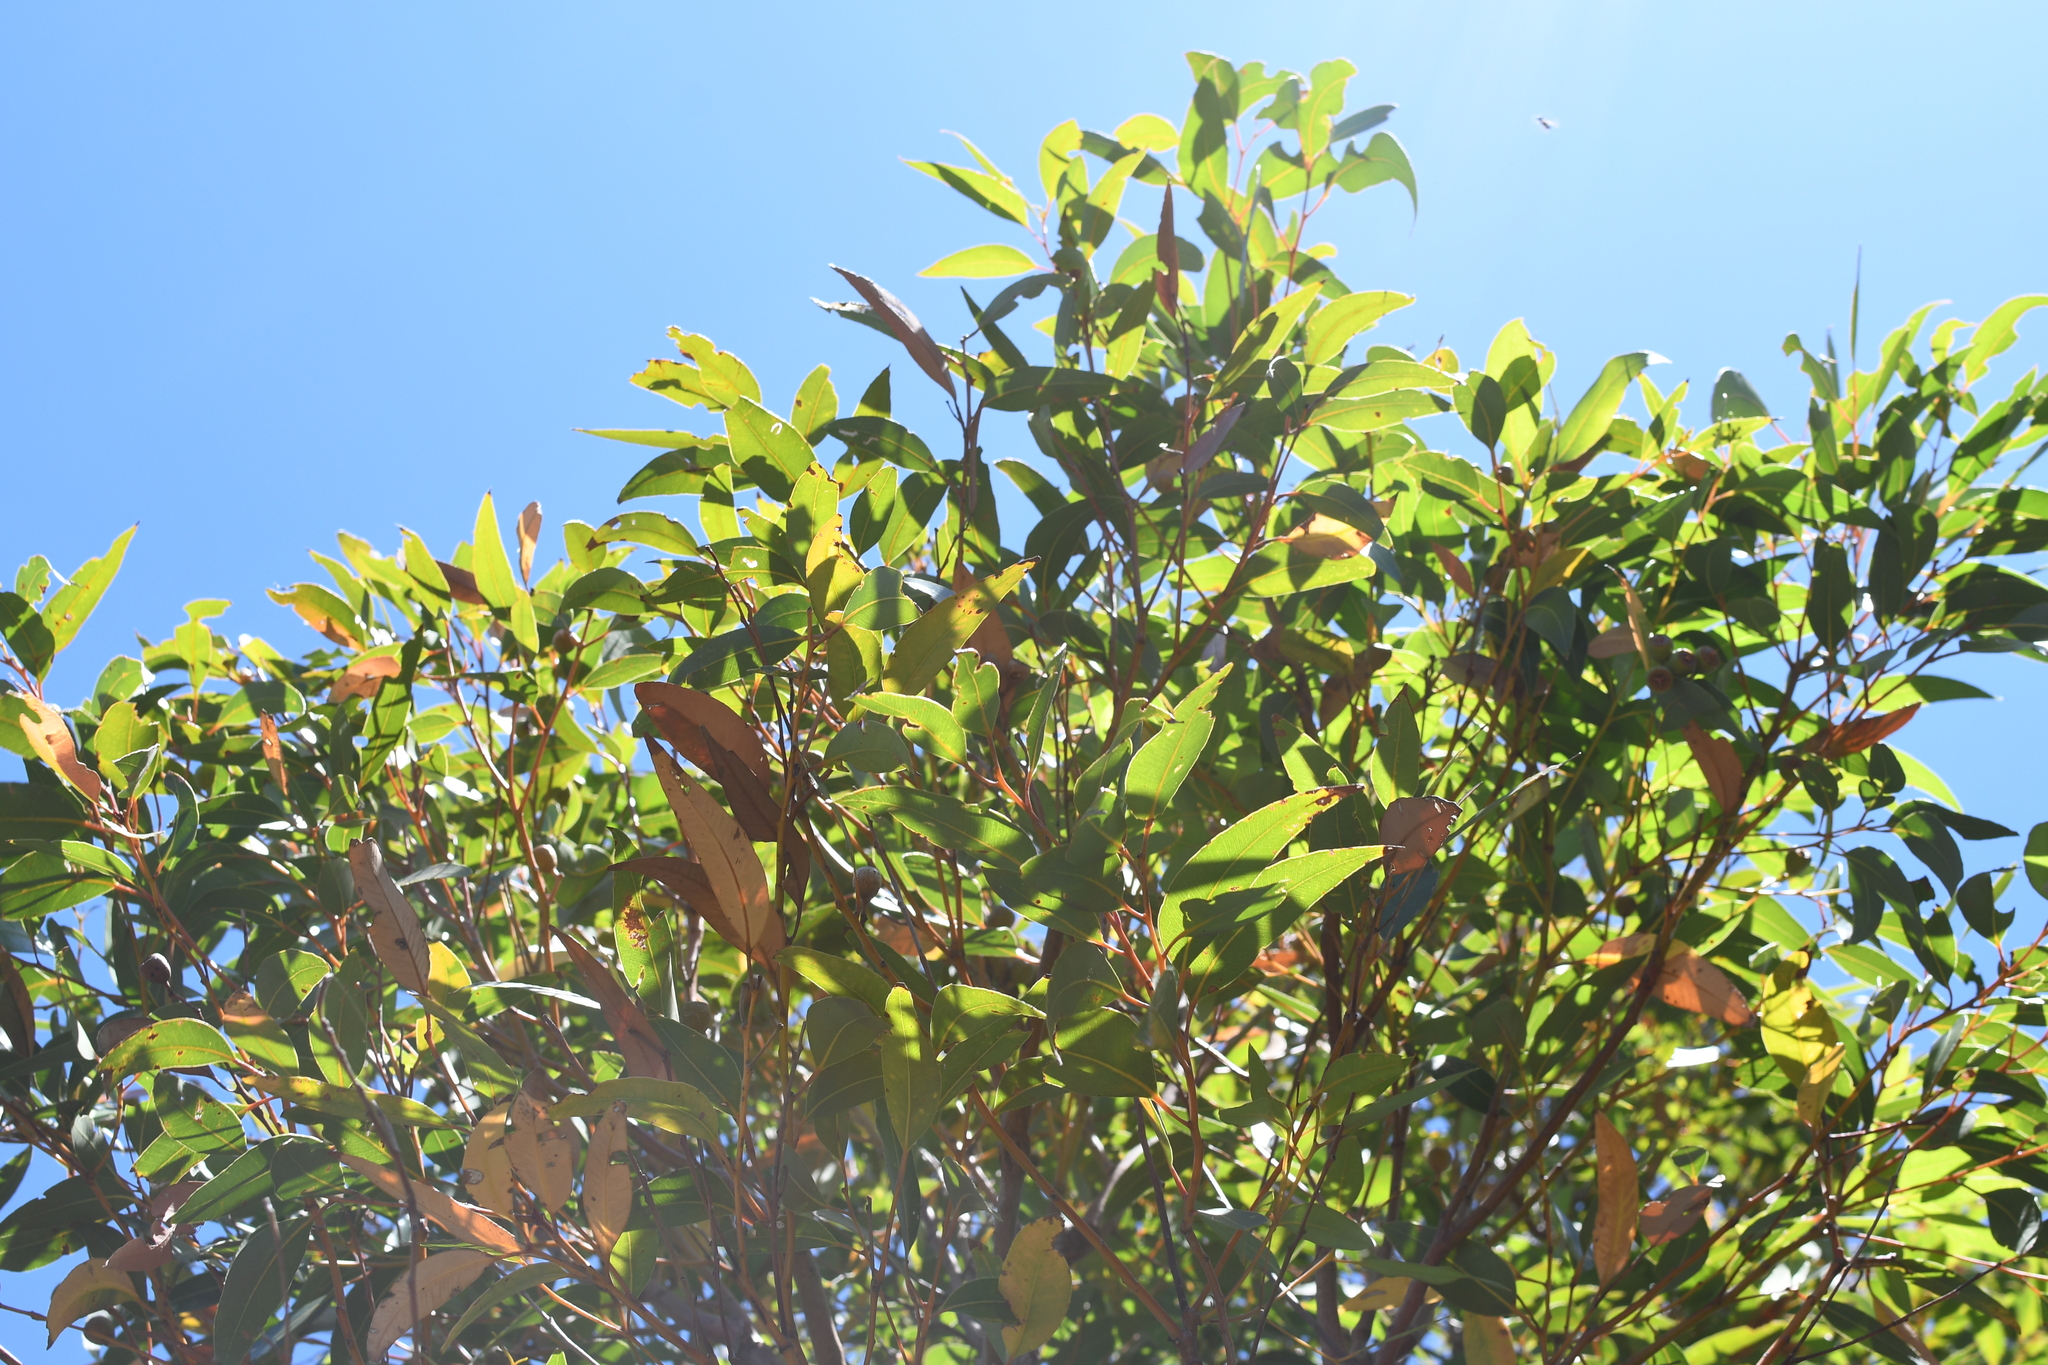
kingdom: Plantae
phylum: Tracheophyta
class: Magnoliopsida
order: Myrtales
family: Myrtaceae
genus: Eucalyptus
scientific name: Eucalyptus marginata
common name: Jarrah
